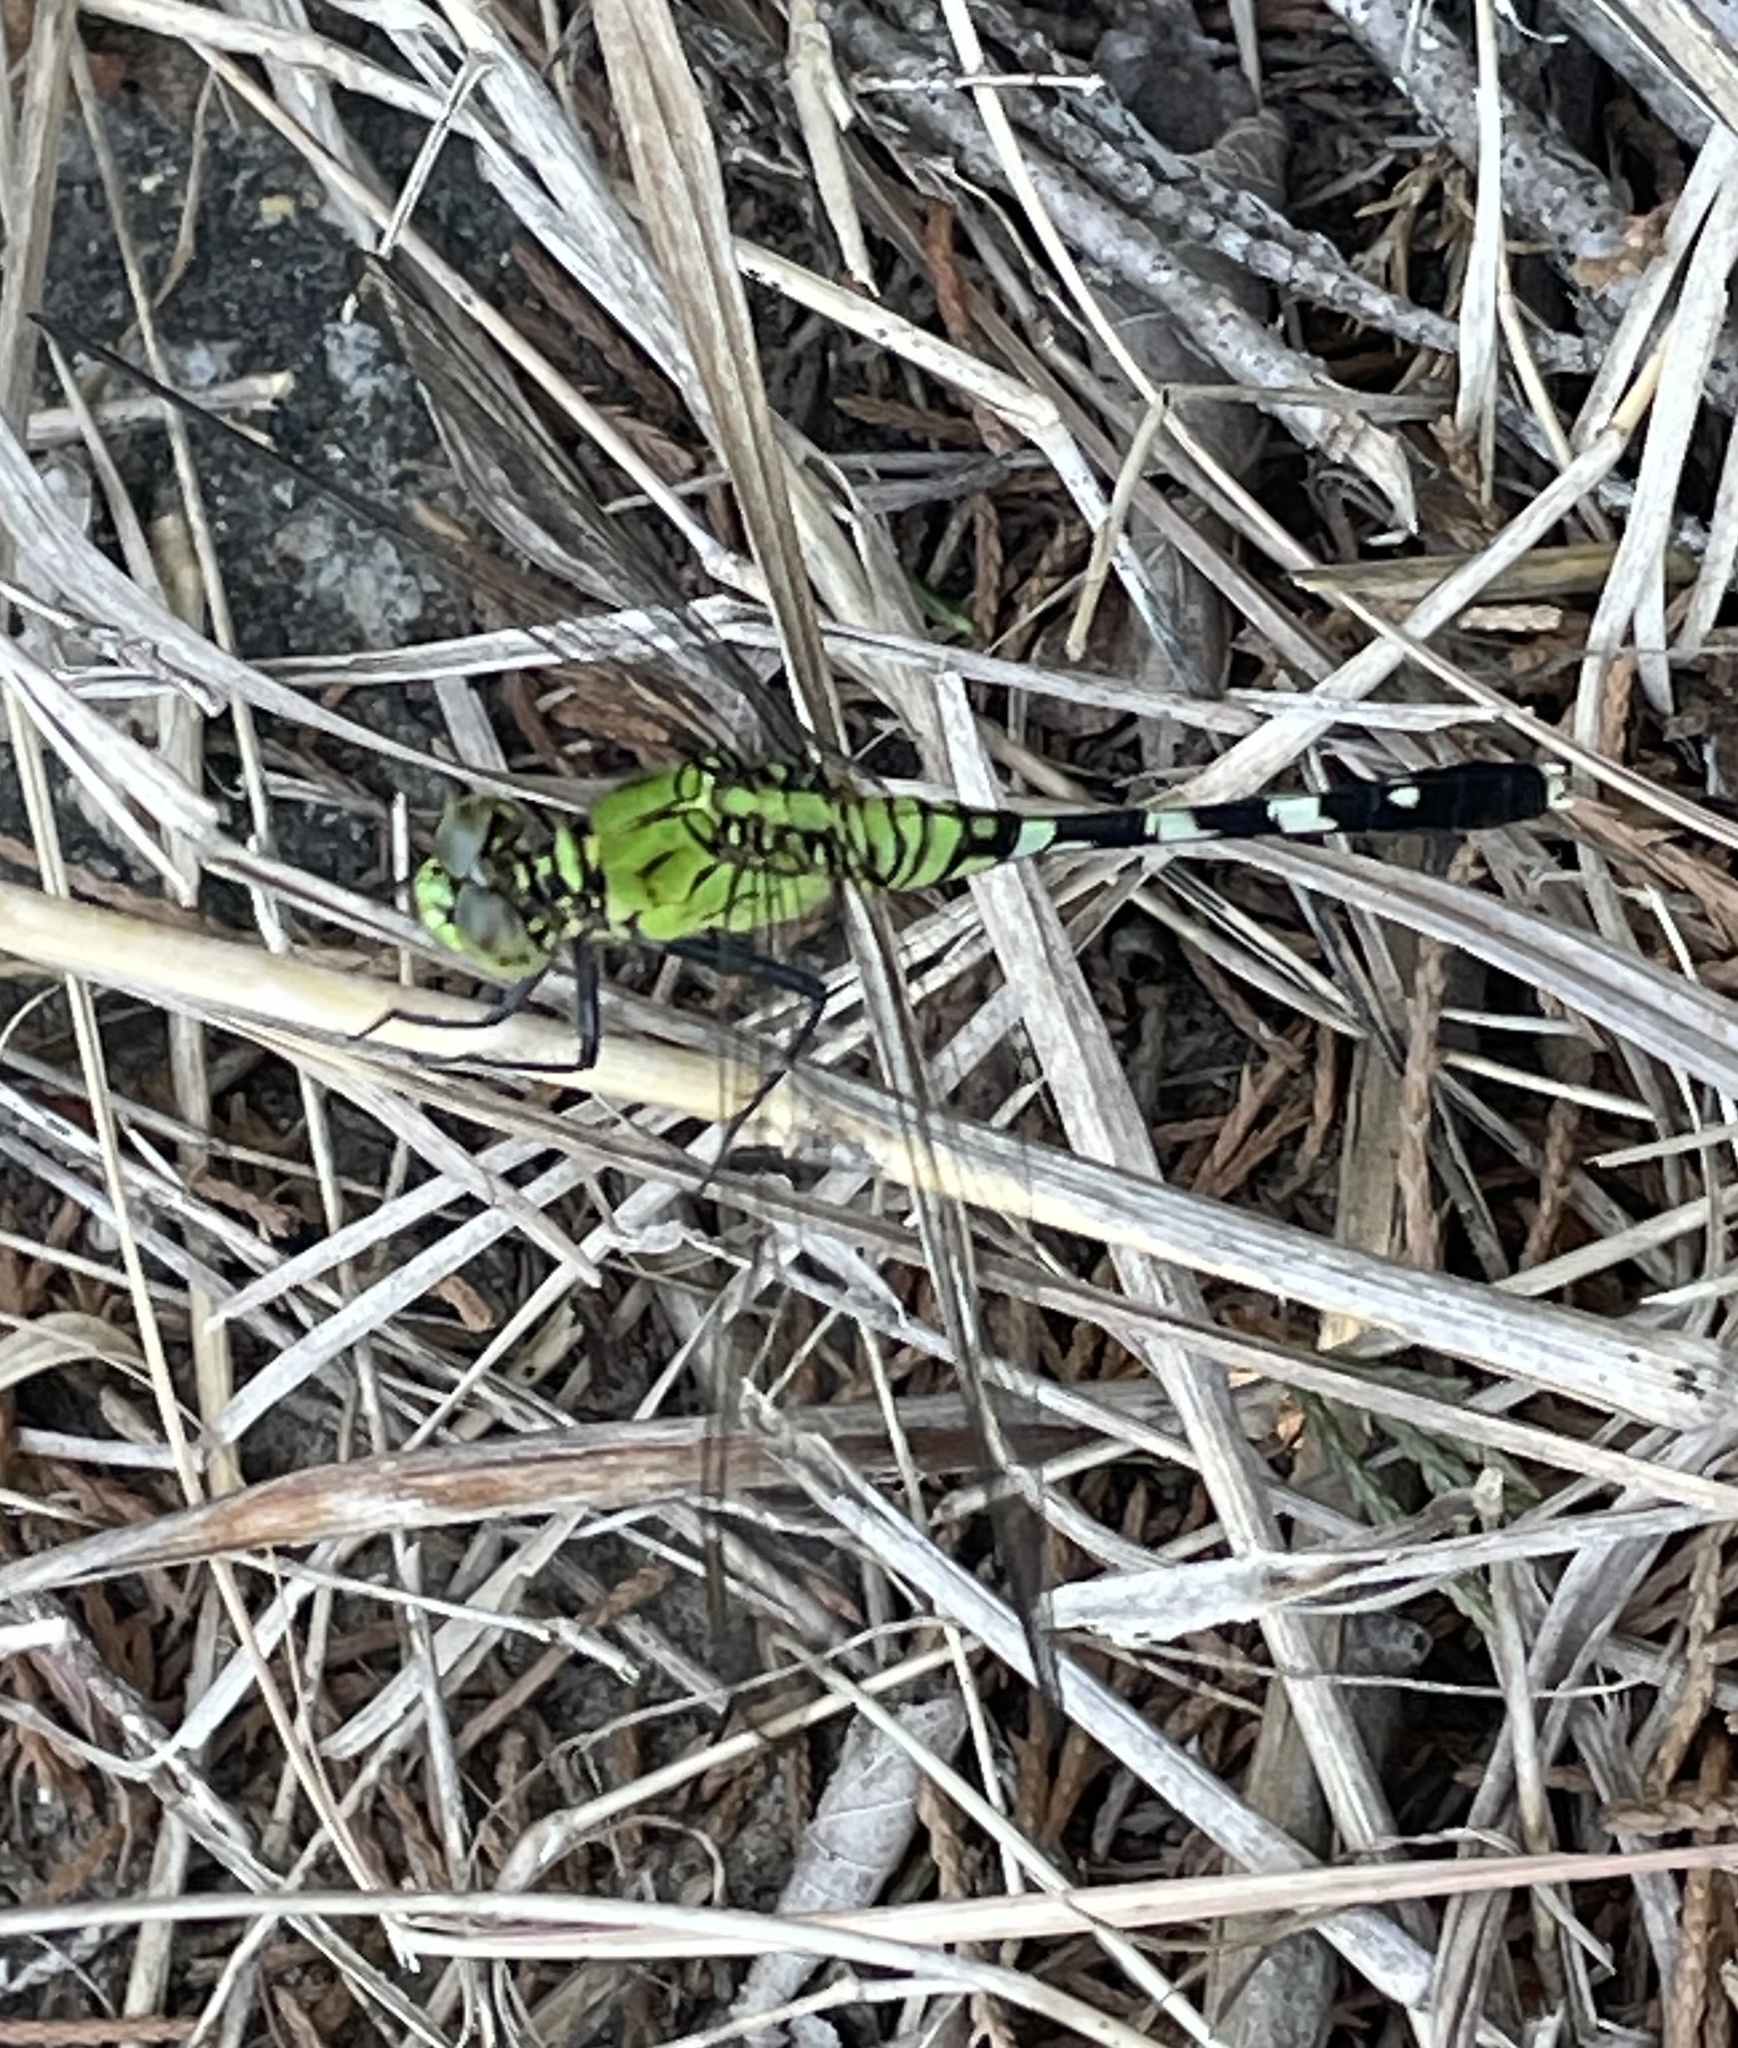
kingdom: Animalia
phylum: Arthropoda
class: Insecta
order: Odonata
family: Libellulidae
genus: Erythemis
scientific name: Erythemis simplicicollis
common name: Eastern pondhawk
